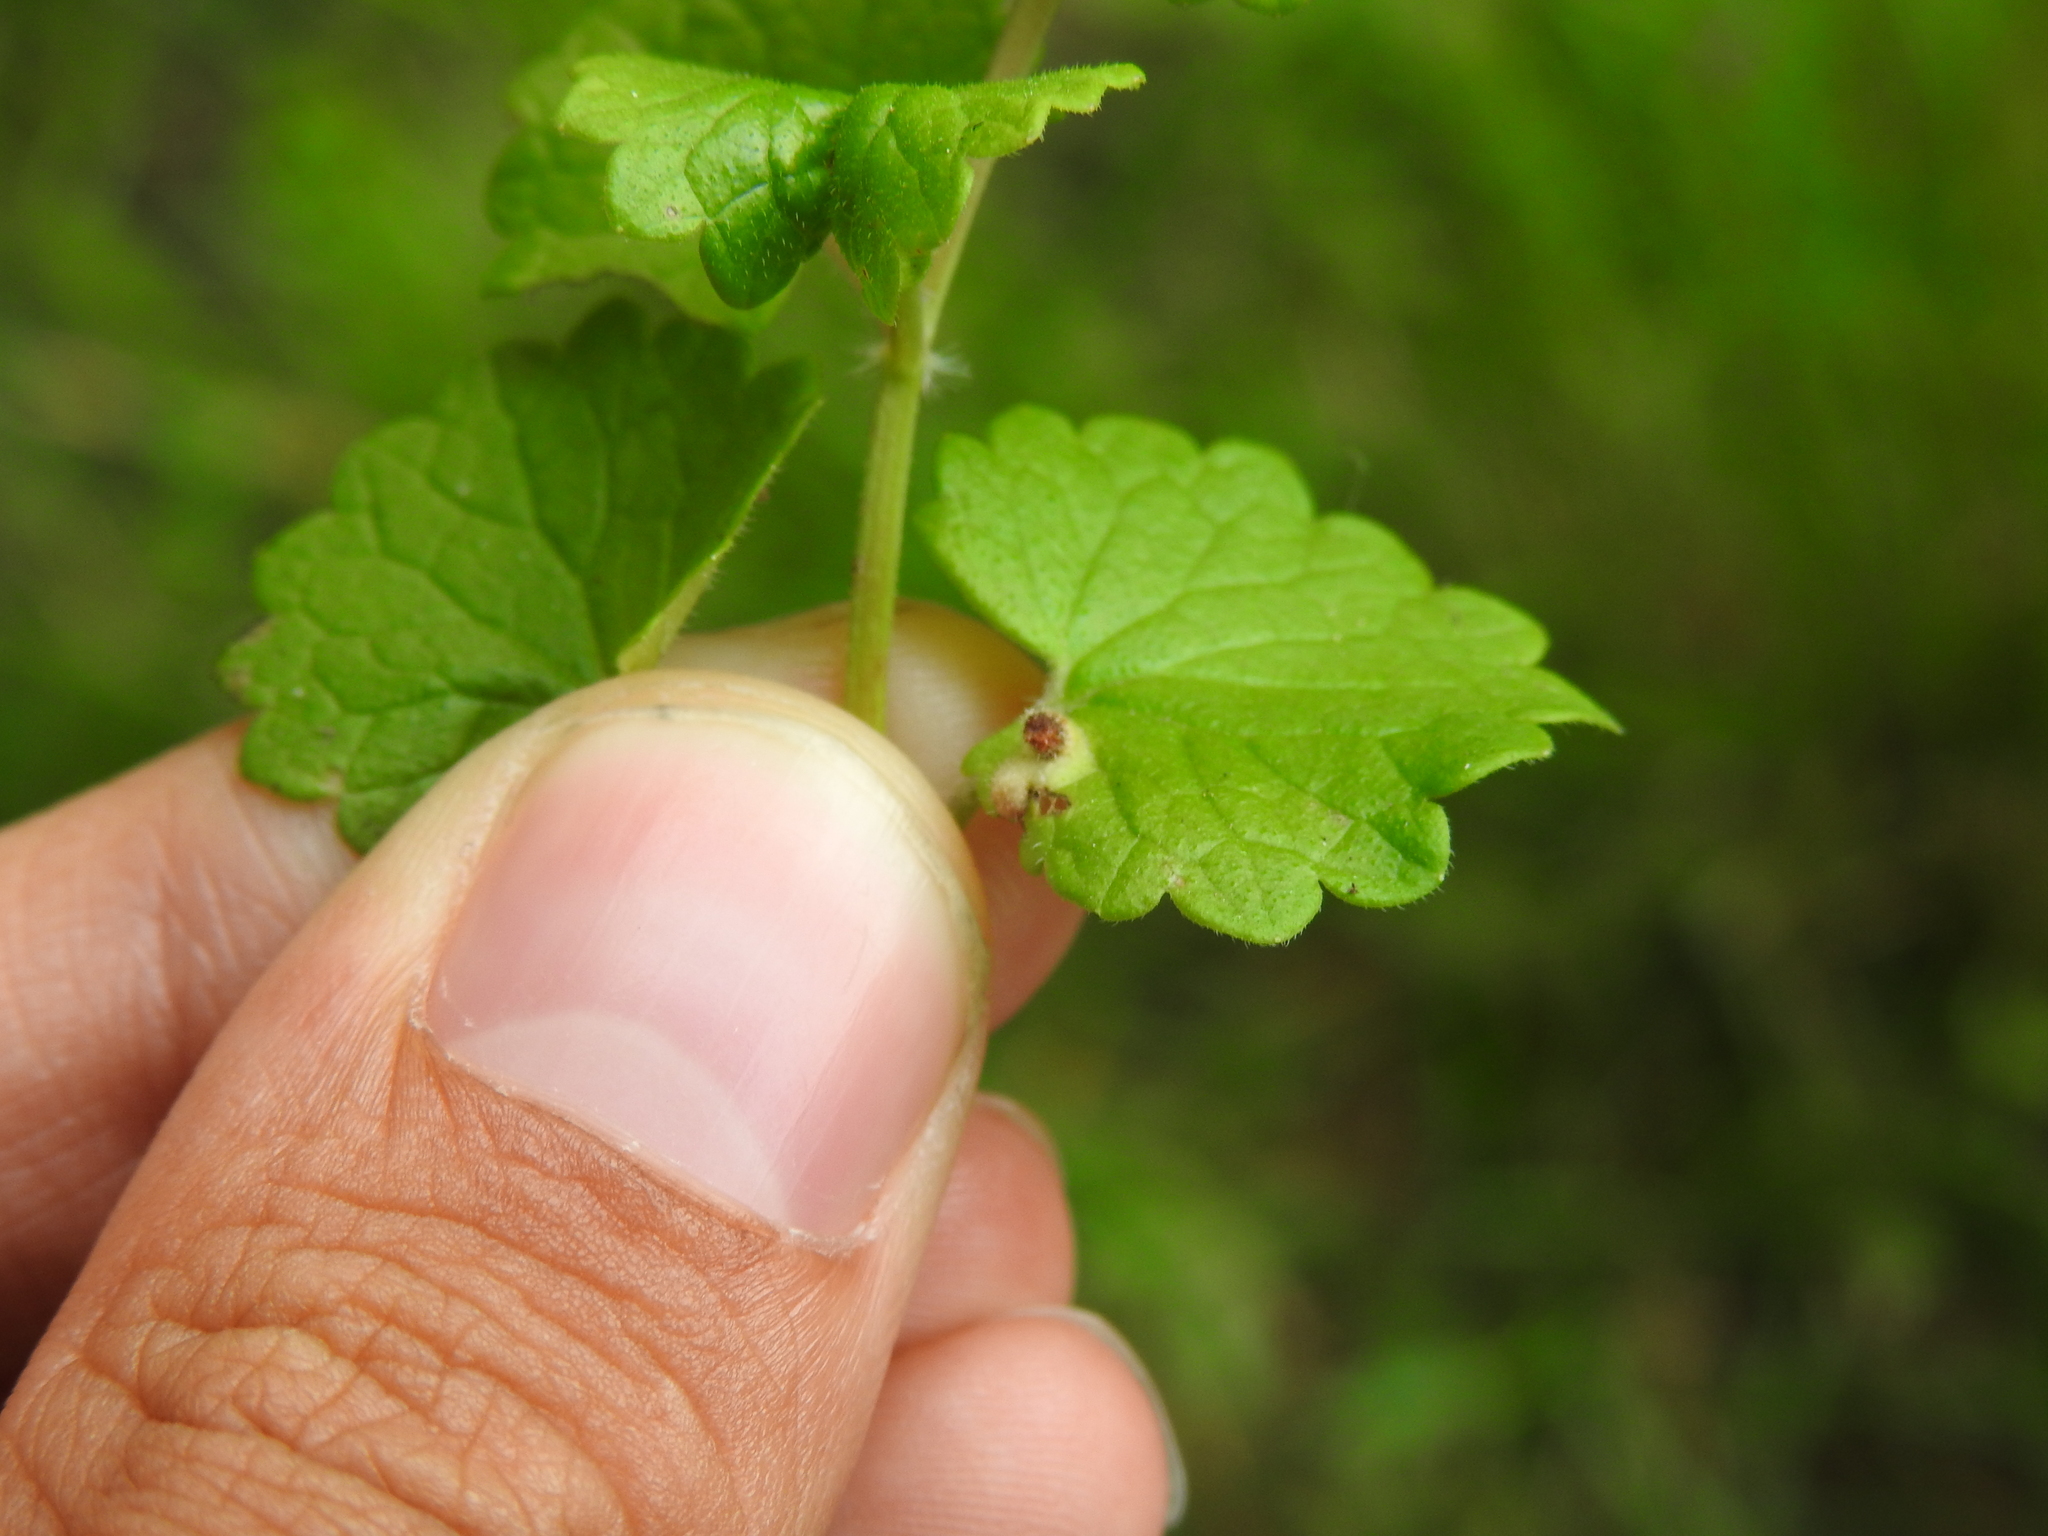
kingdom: Animalia
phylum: Arthropoda
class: Insecta
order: Diptera
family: Cecidomyiidae
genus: Rondaniola
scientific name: Rondaniola bursaria
